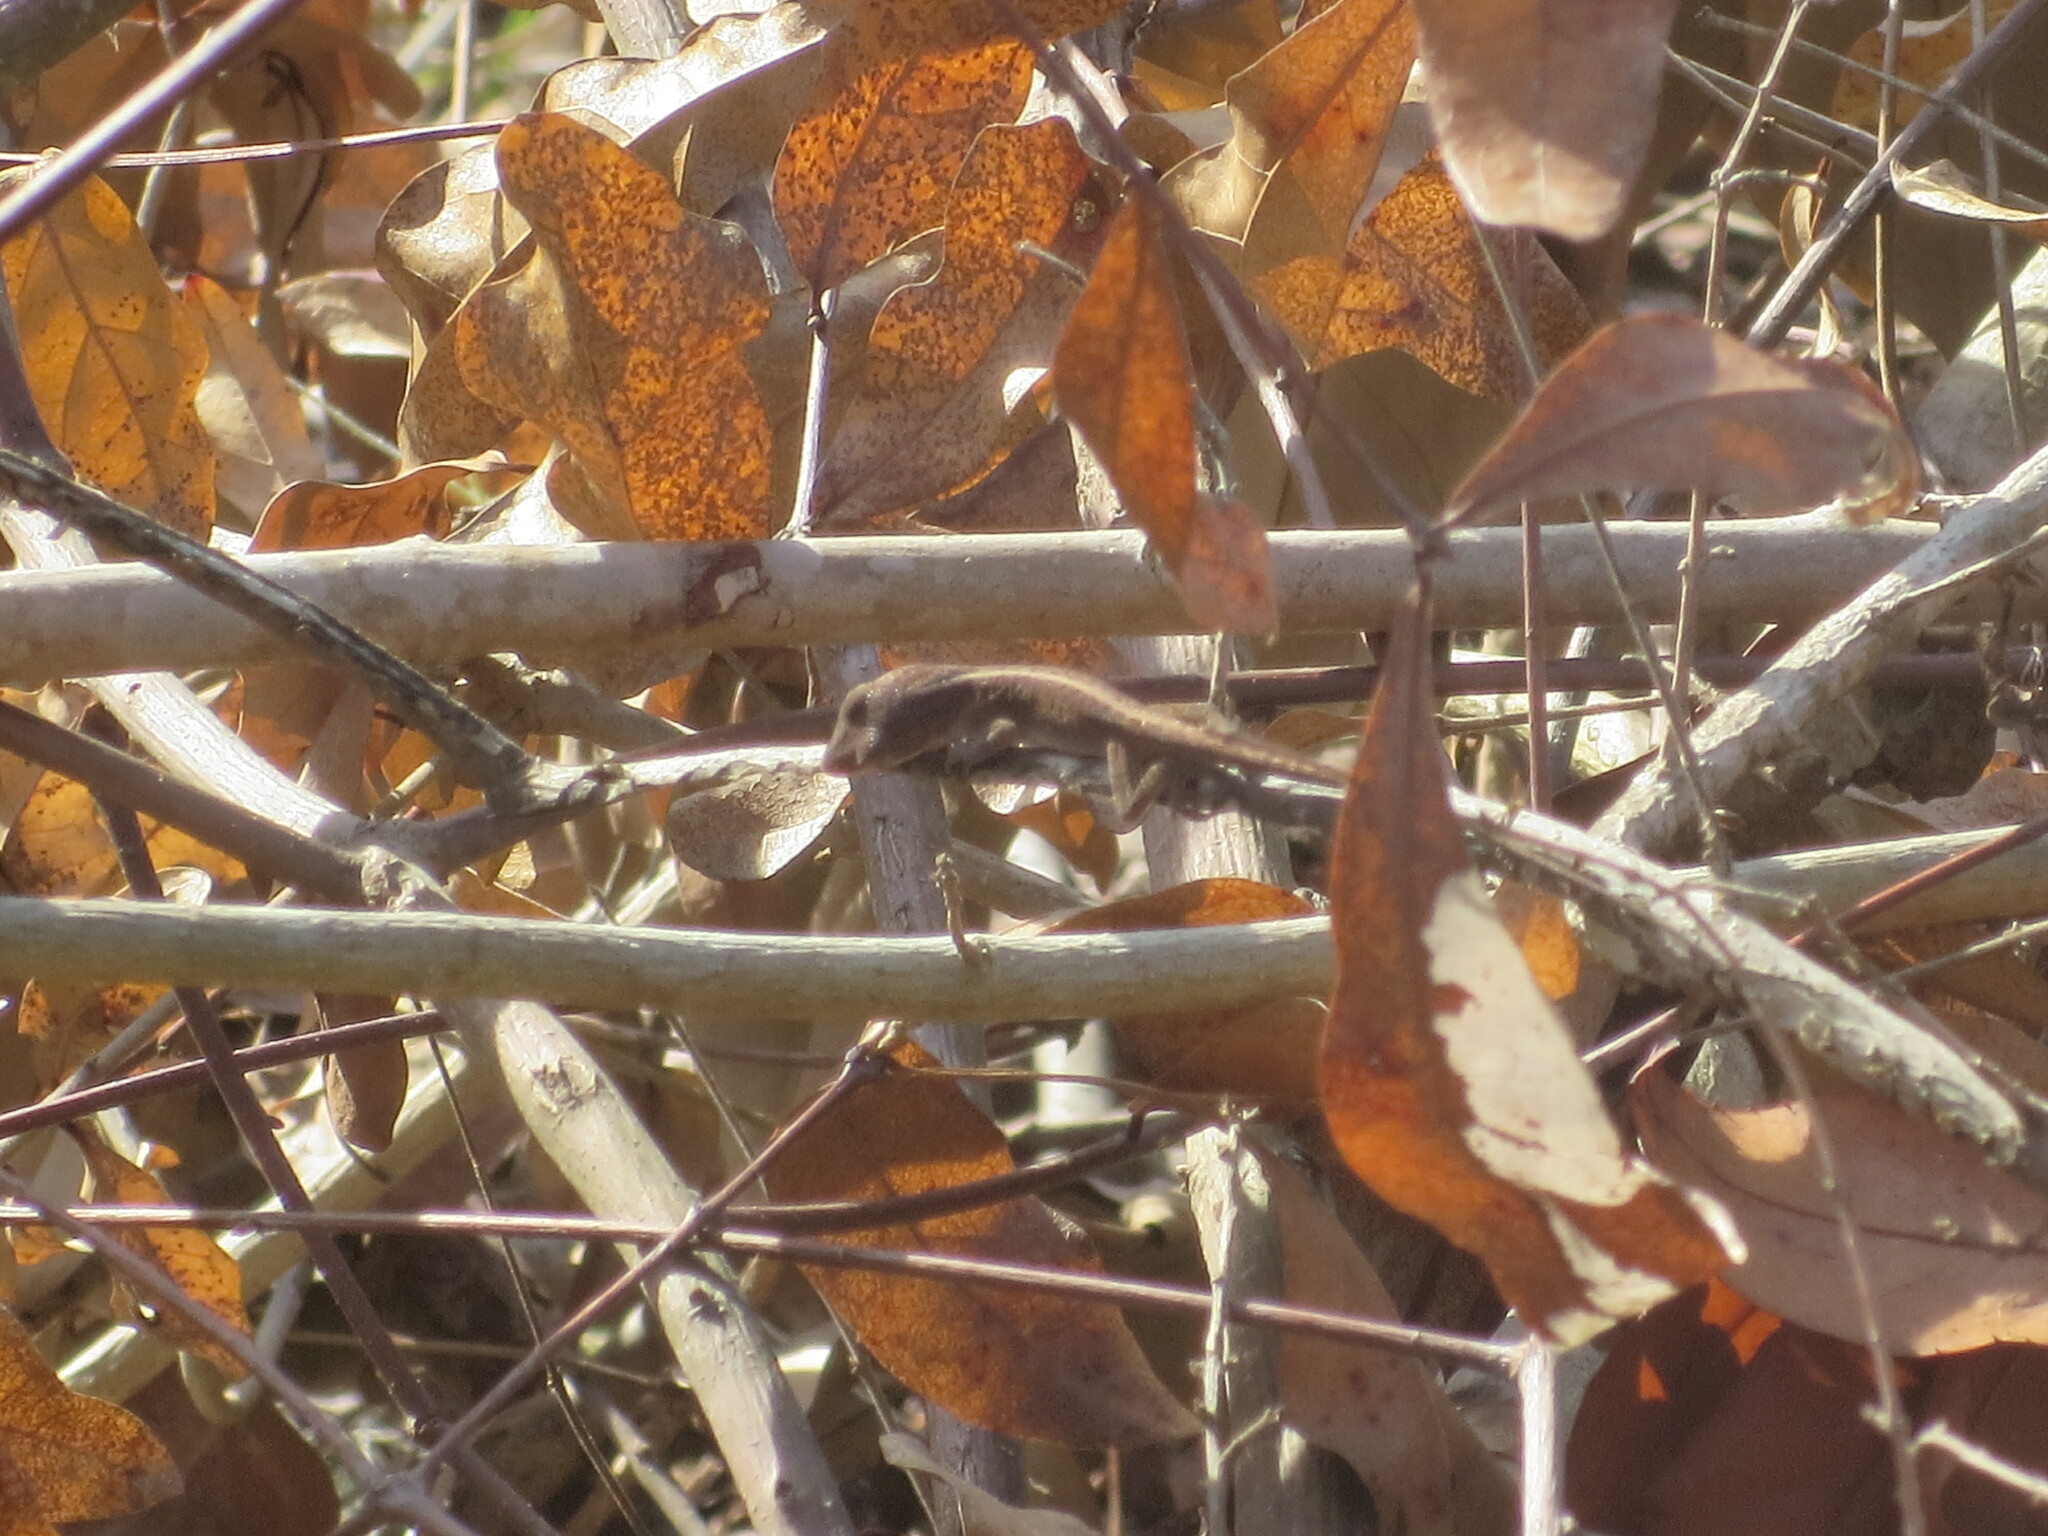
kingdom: Animalia
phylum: Chordata
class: Squamata
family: Dactyloidae
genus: Anolis
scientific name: Anolis carolinensis
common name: Green anole
